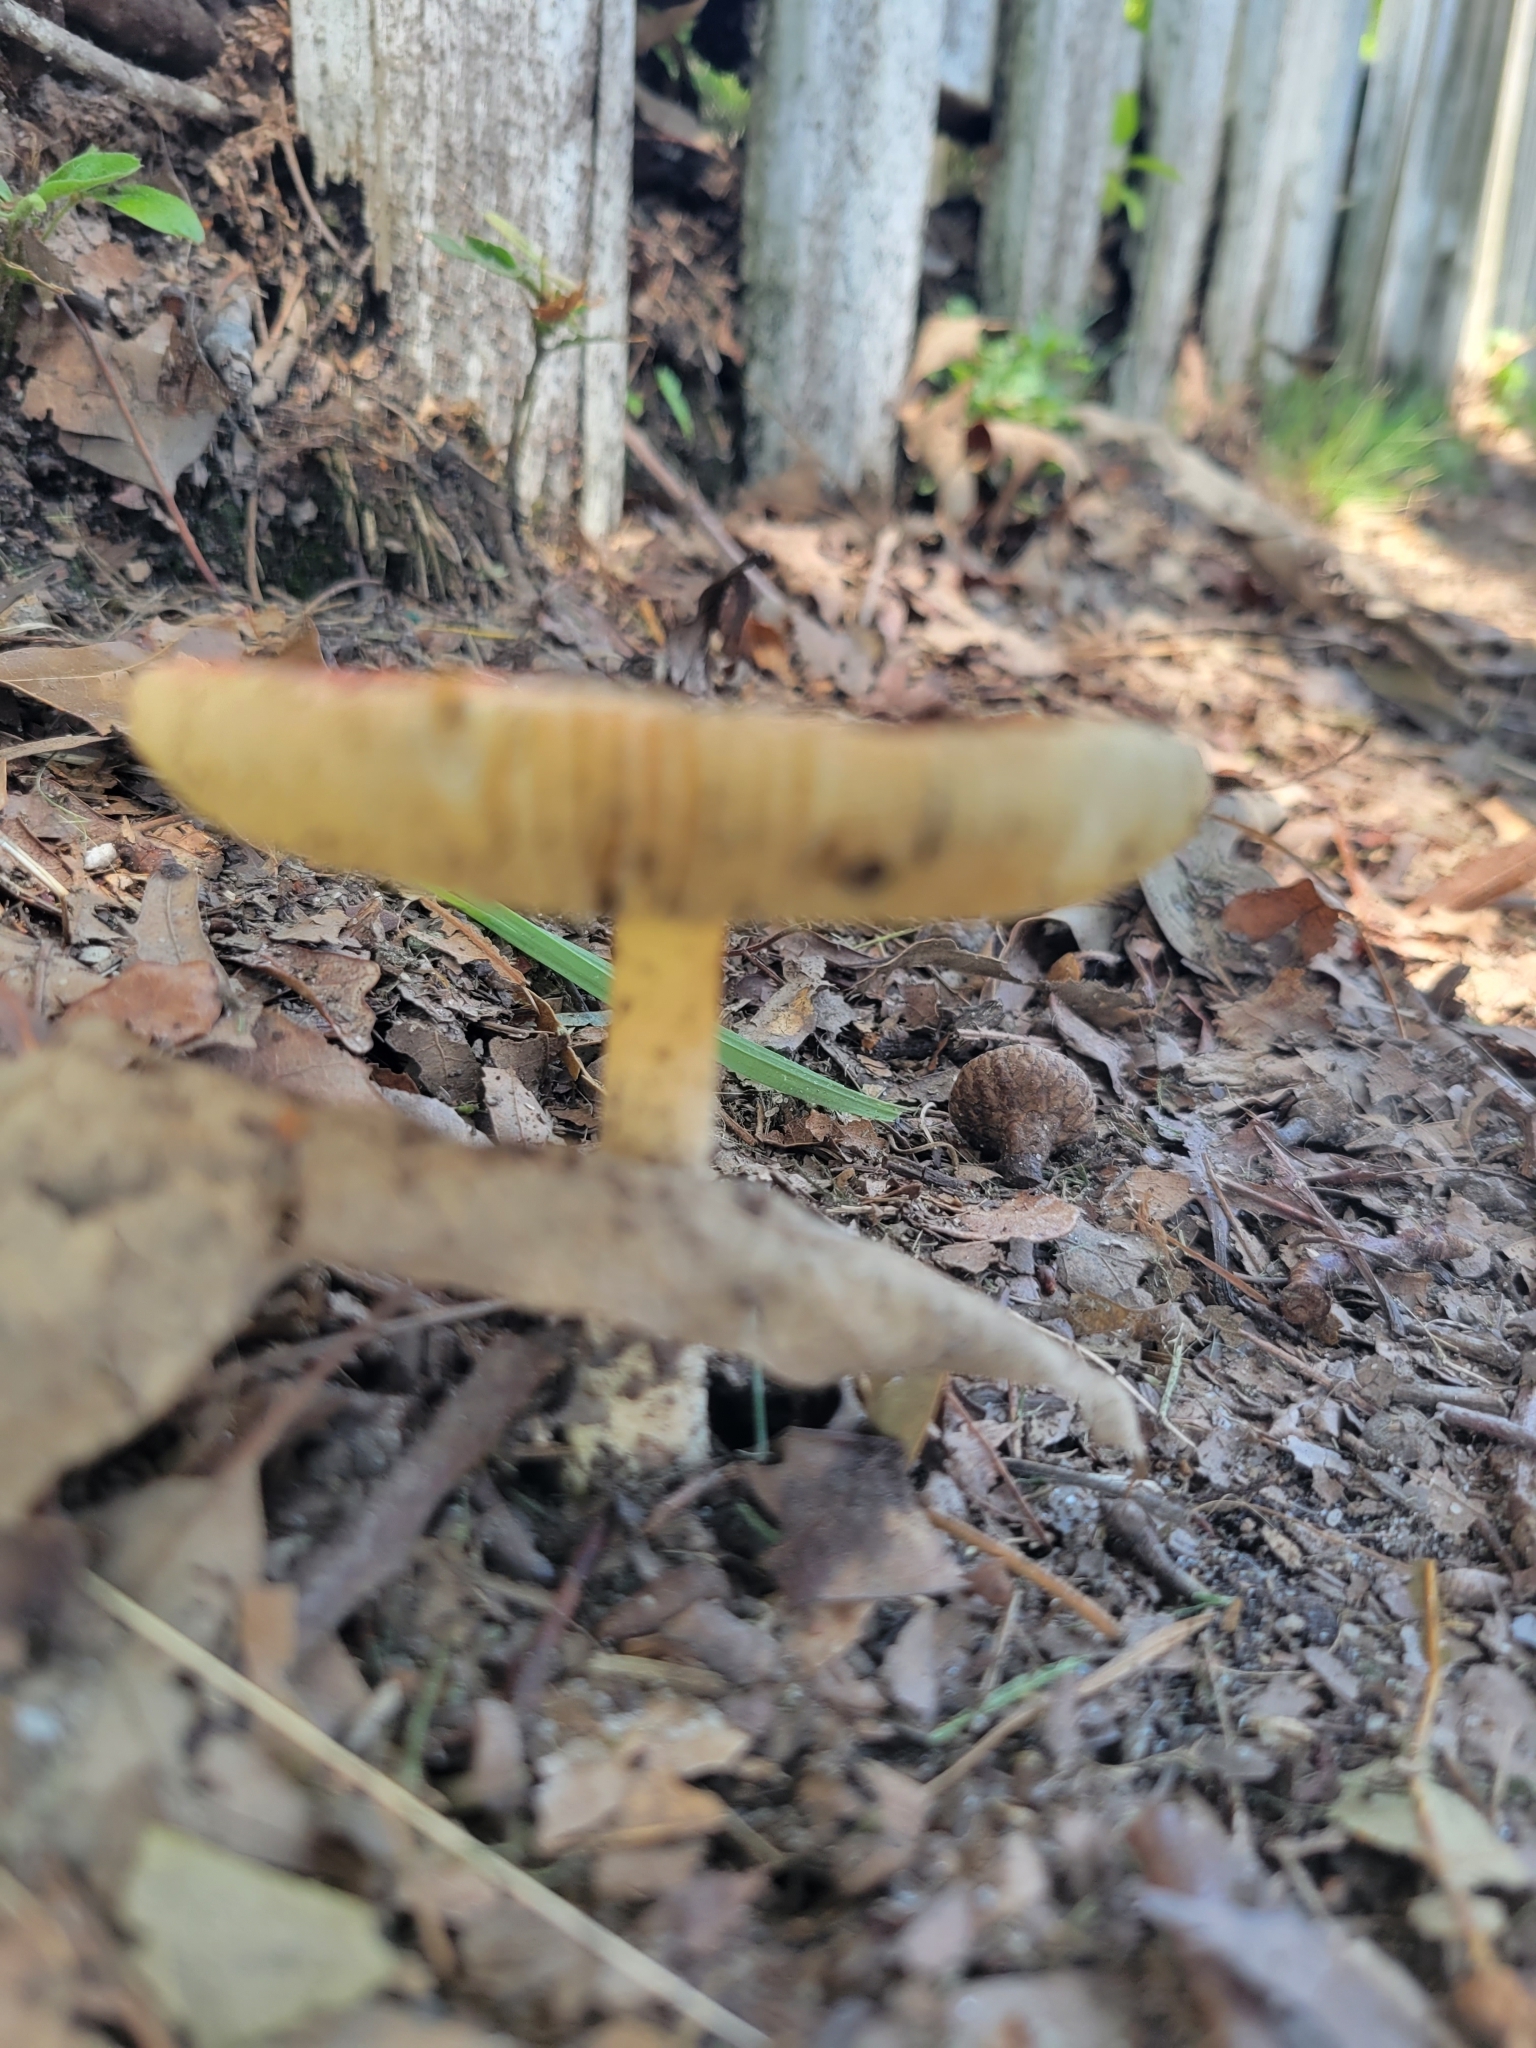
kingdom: Fungi
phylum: Basidiomycota
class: Agaricomycetes
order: Agaricales
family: Amanitaceae
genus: Amanita
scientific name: Amanita parcivolvata
